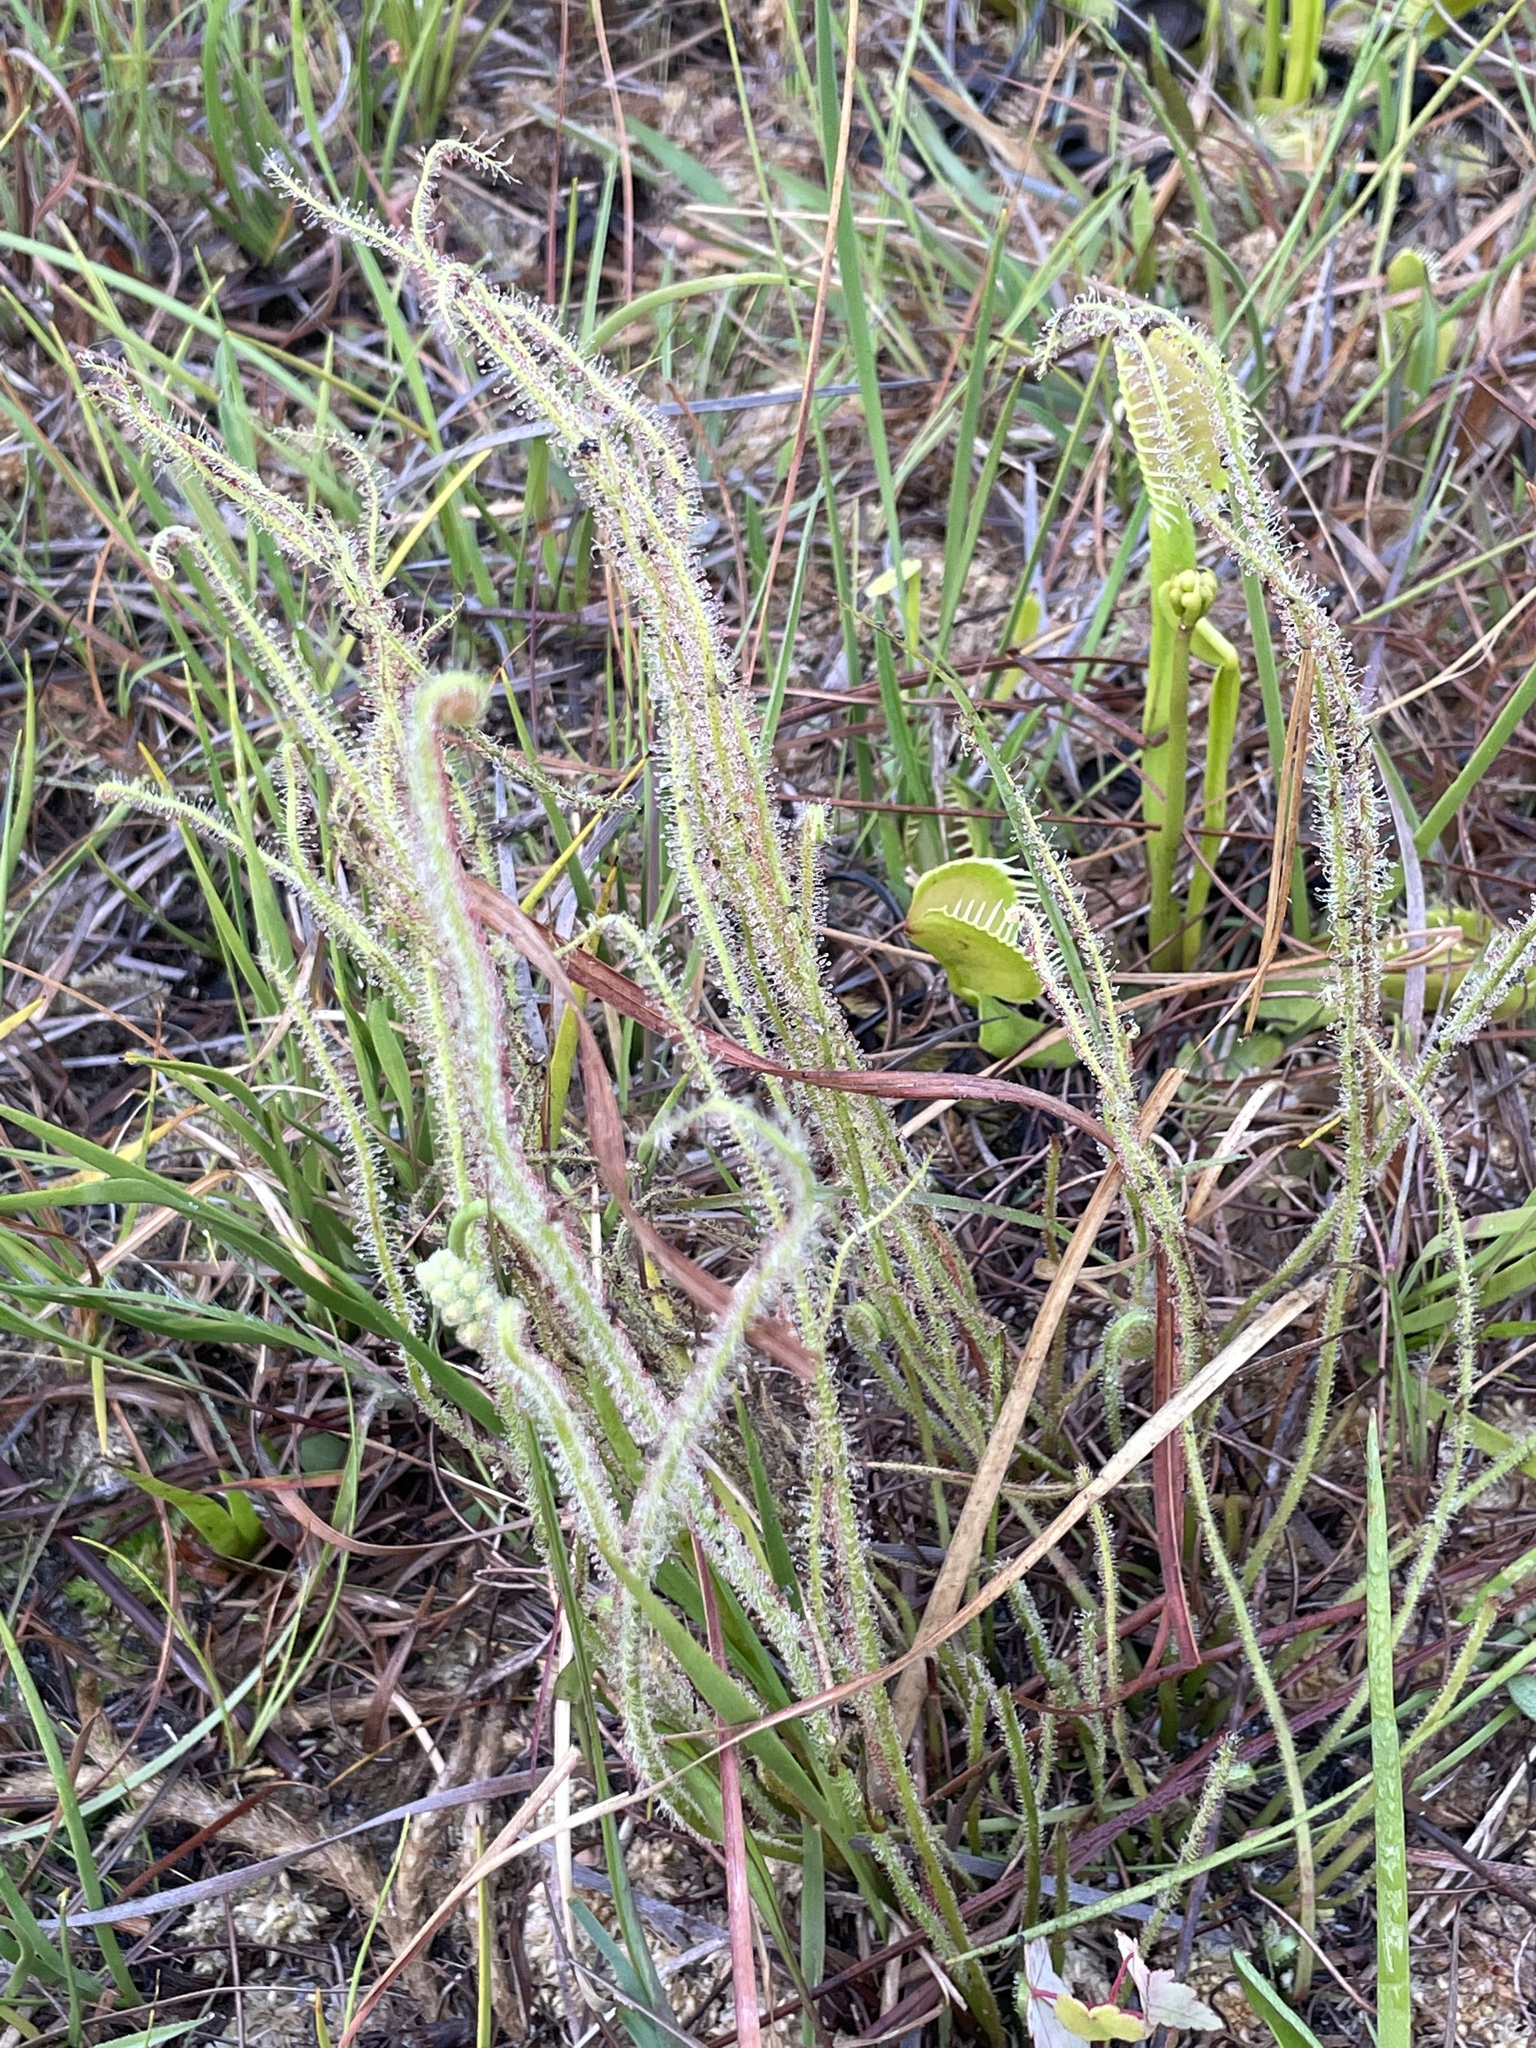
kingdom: Plantae
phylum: Tracheophyta
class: Magnoliopsida
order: Caryophyllales
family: Droseraceae
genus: Drosera
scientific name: Drosera filiformis
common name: Dew-thread
